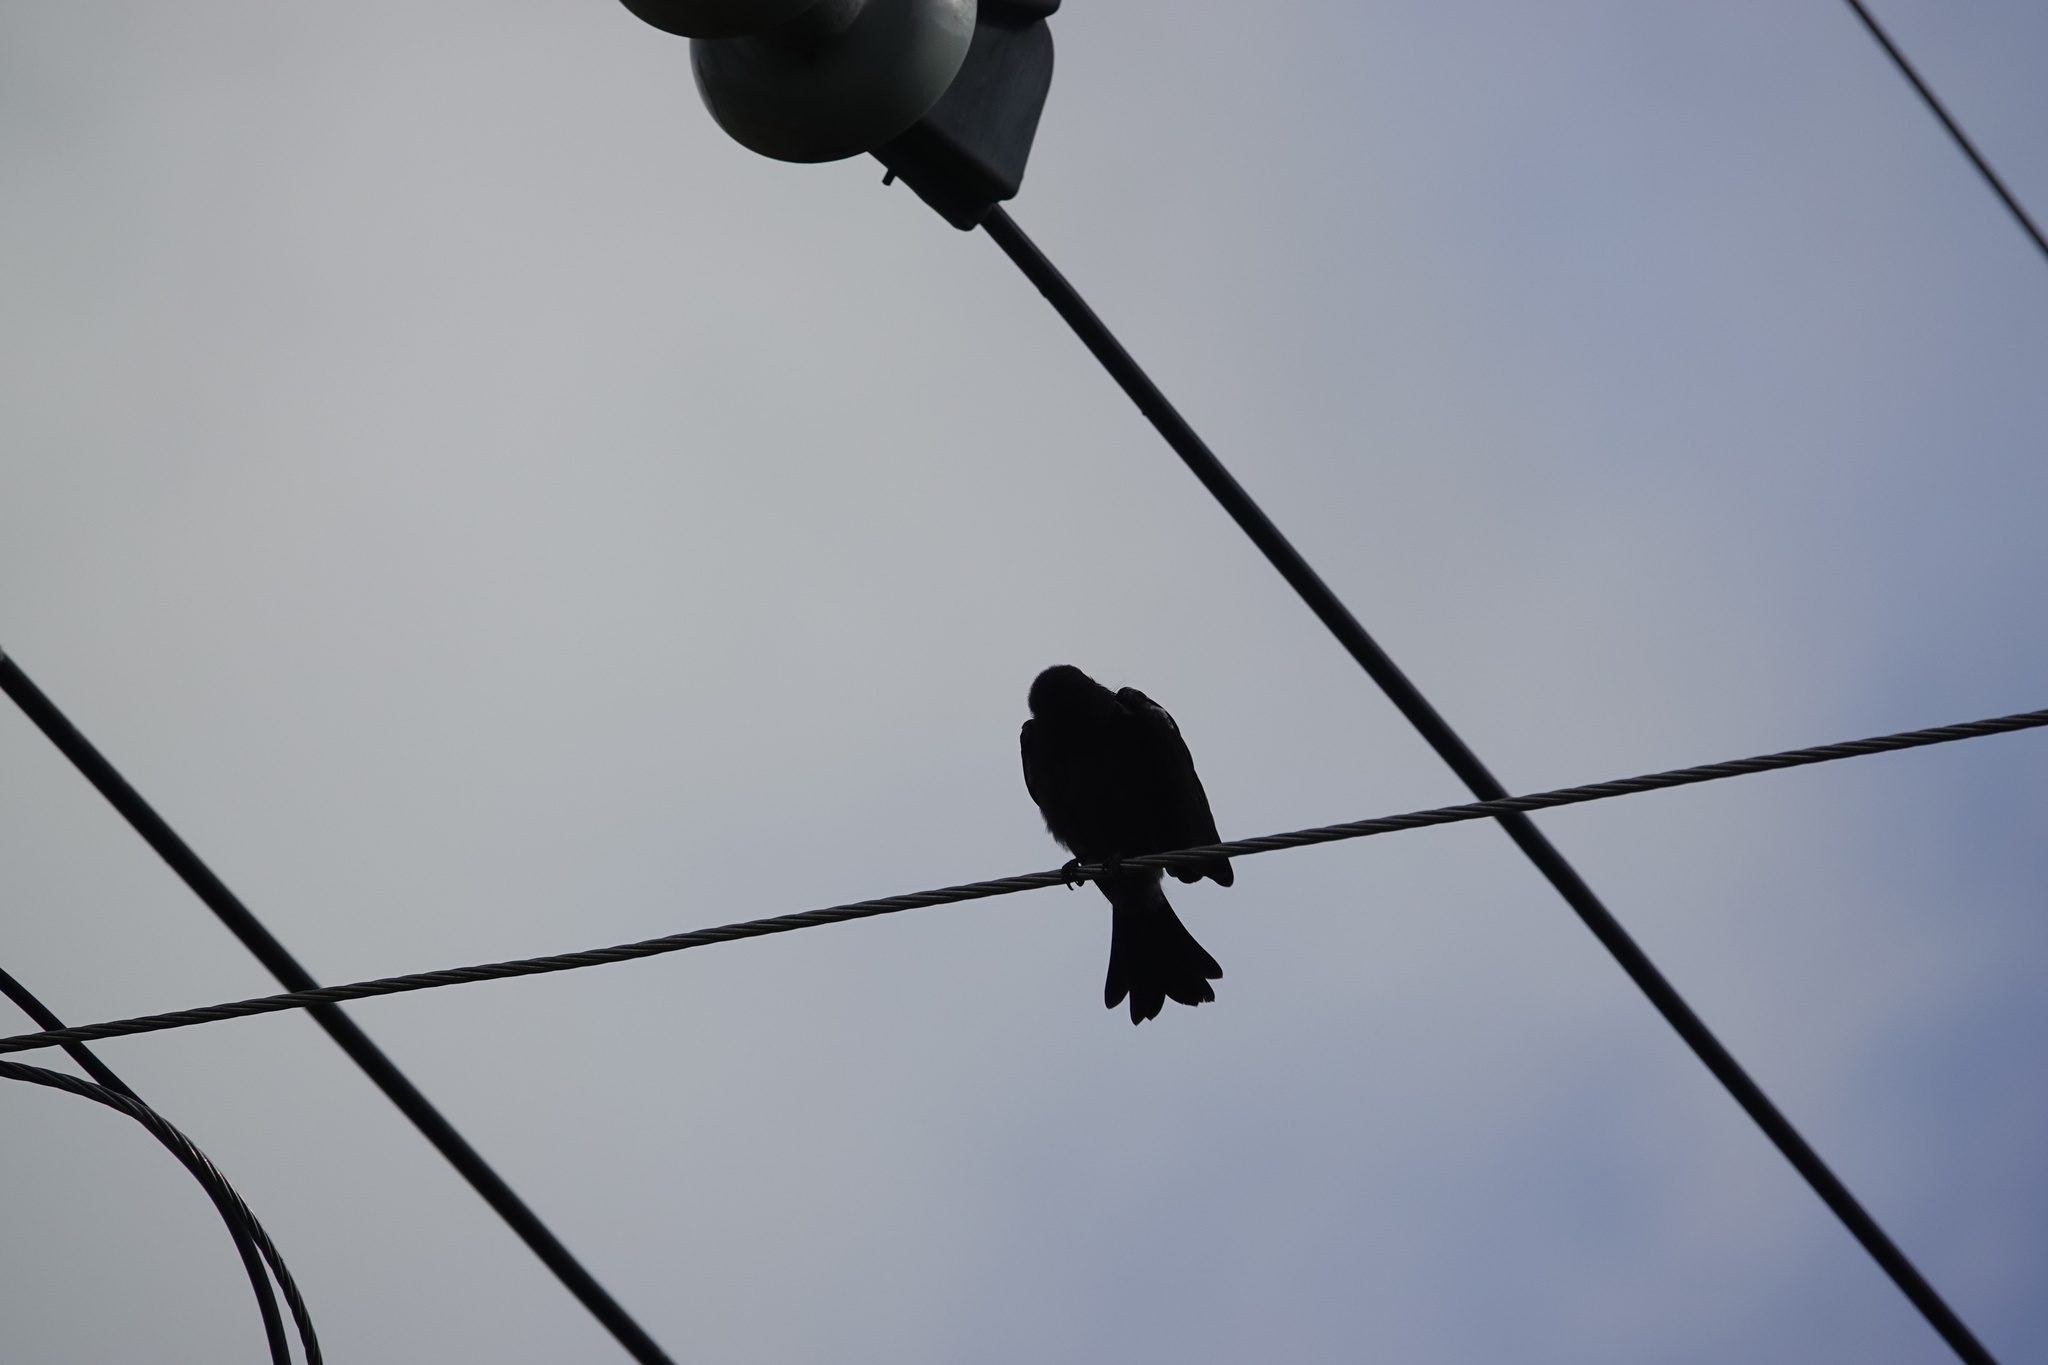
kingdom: Animalia
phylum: Chordata
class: Aves
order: Passeriformes
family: Dicruridae
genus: Dicrurus
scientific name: Dicrurus macrocercus
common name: Black drongo
